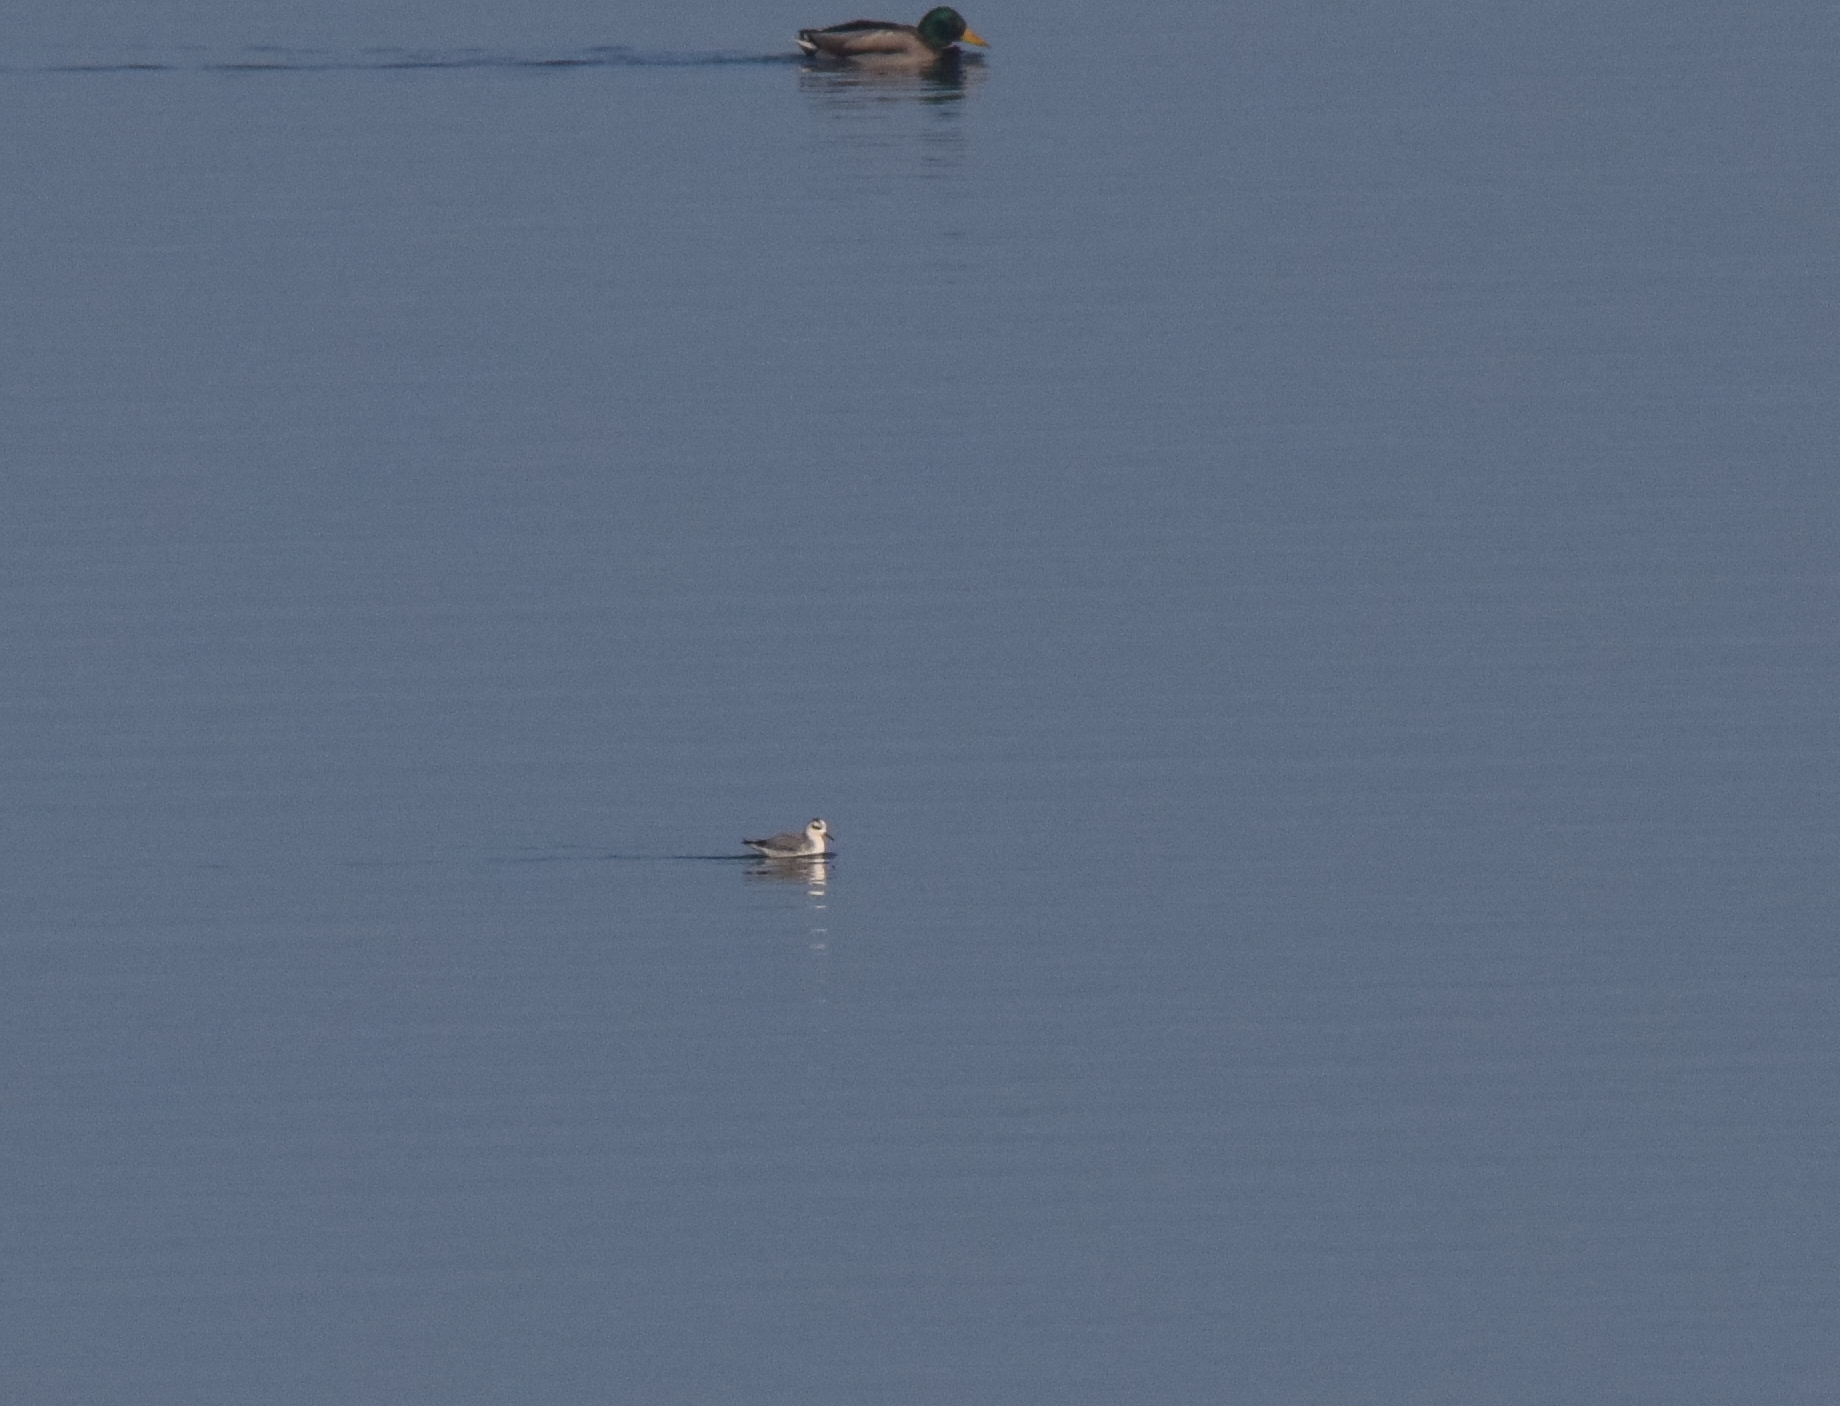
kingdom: Animalia
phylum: Chordata
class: Aves
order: Charadriiformes
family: Scolopacidae
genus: Phalaropus
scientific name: Phalaropus fulicarius
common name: Red phalarope
